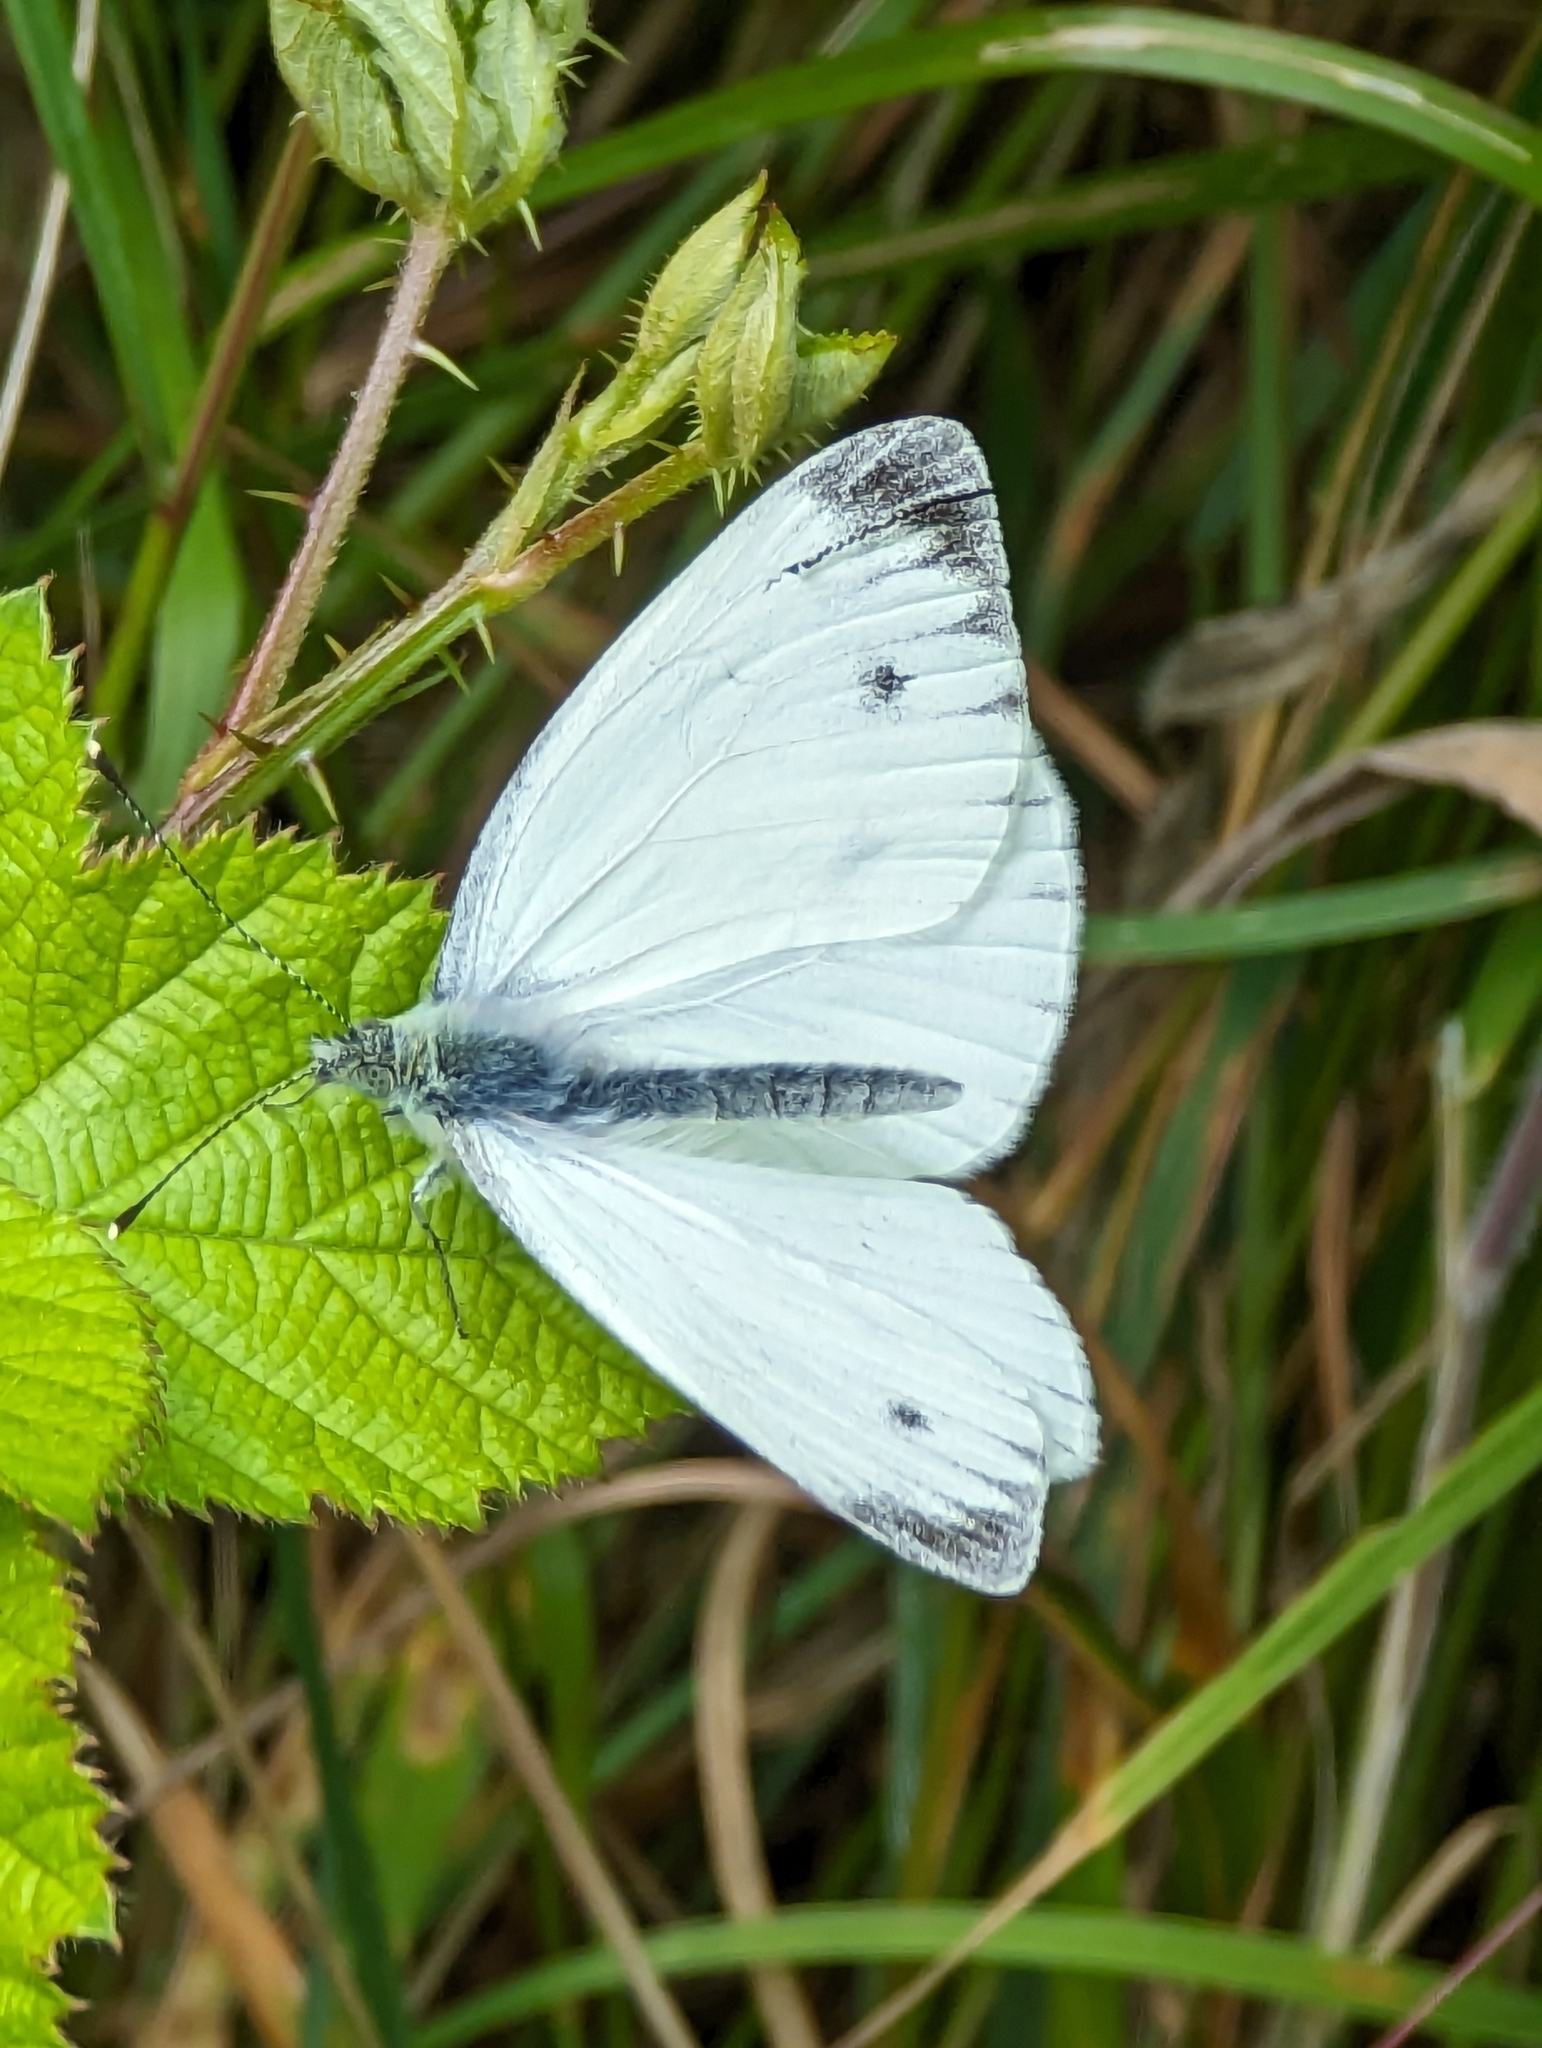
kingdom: Animalia
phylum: Arthropoda
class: Insecta
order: Lepidoptera
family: Pieridae
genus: Pieris
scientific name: Pieris napi
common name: Green-veined white
